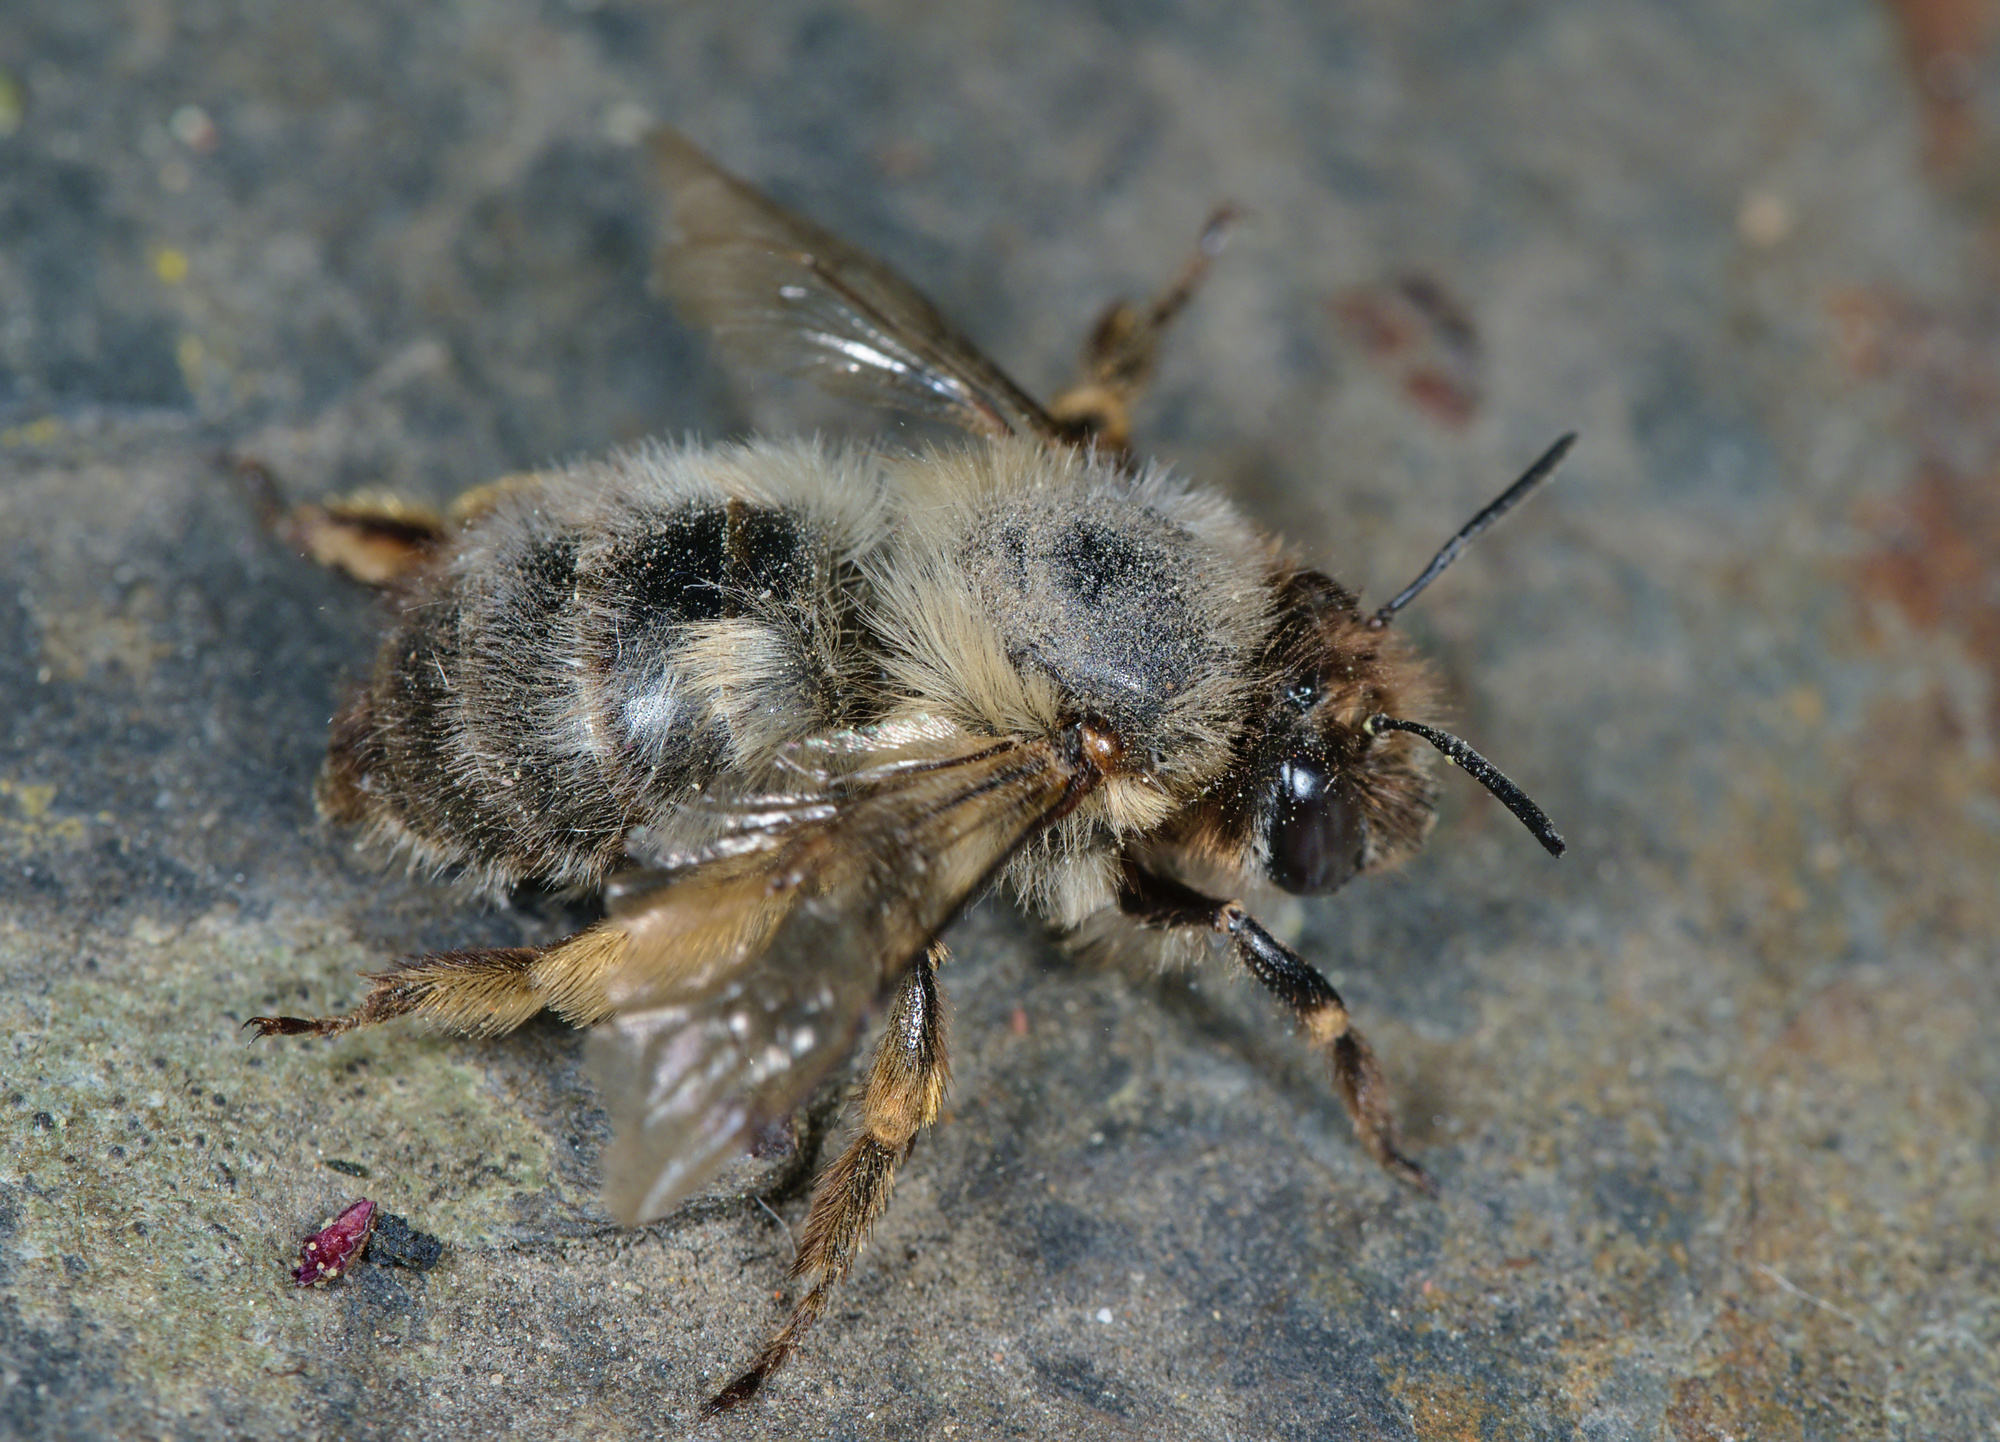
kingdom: Animalia
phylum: Arthropoda
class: Insecta
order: Hymenoptera
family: Apidae
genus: Anthophora
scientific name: Anthophora plumipes
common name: Hairy-footed flower bee
